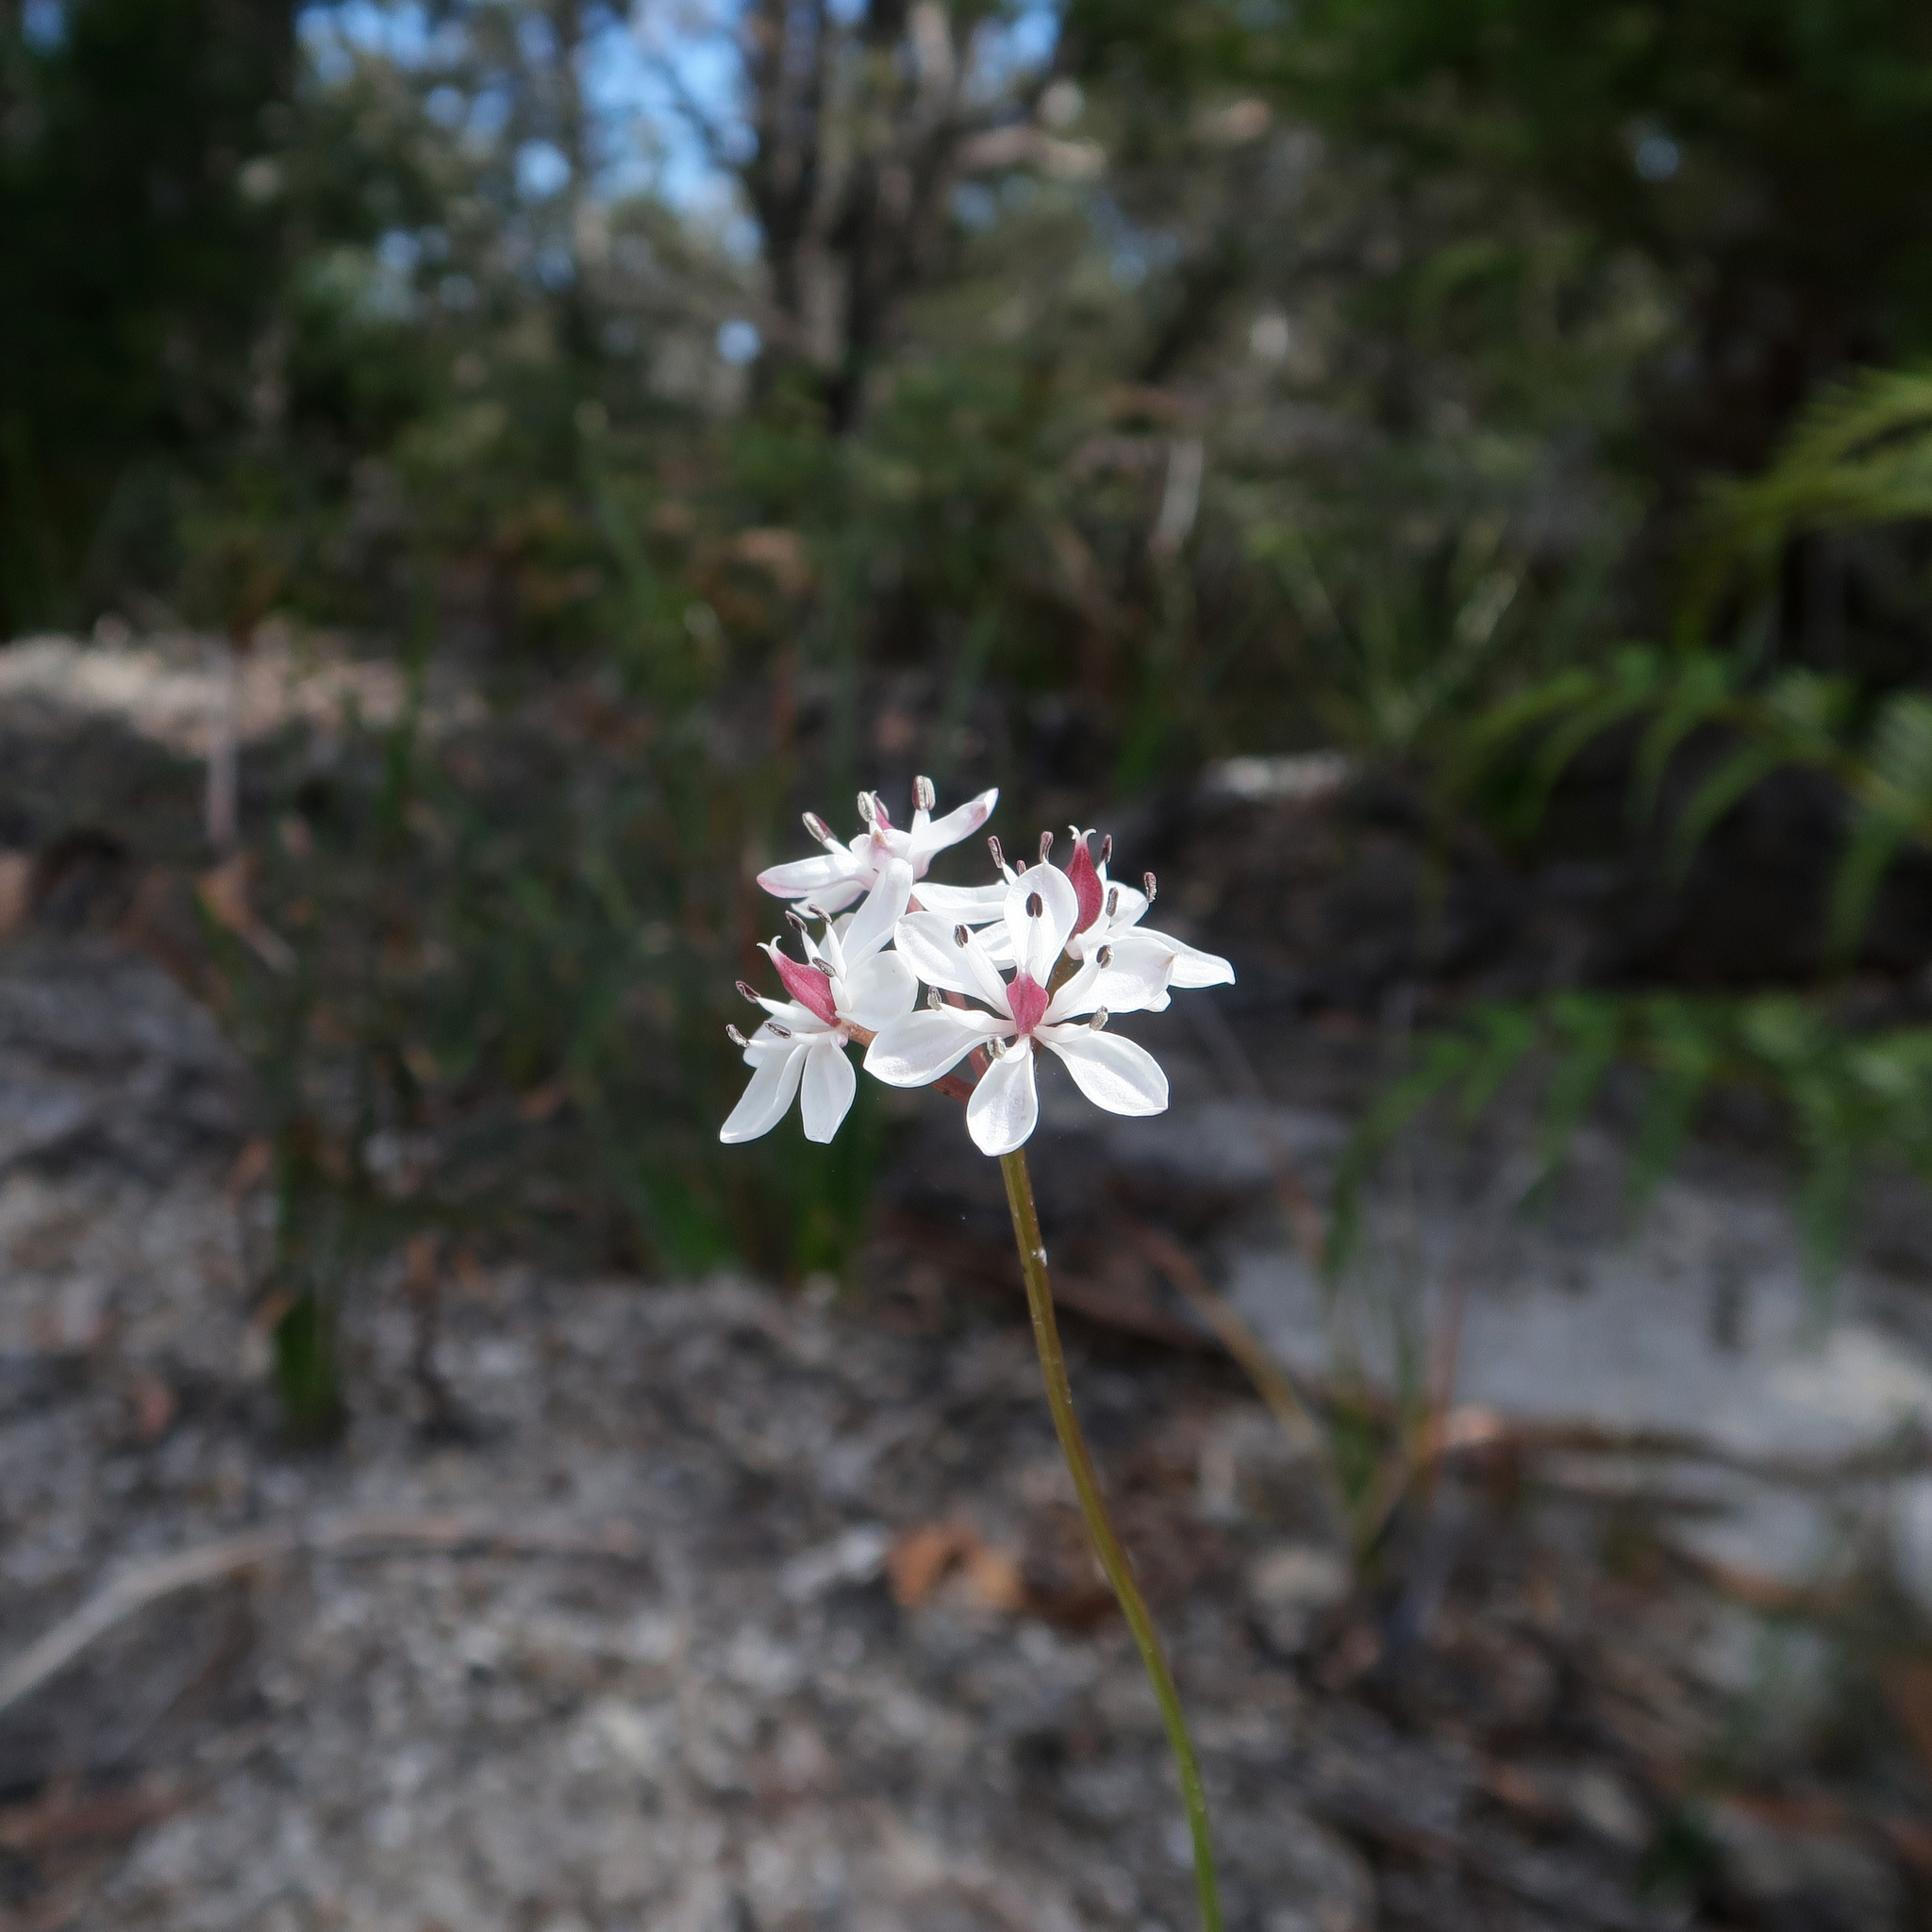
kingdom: Plantae
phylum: Tracheophyta
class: Liliopsida
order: Liliales
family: Colchicaceae
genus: Burchardia
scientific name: Burchardia umbellata
